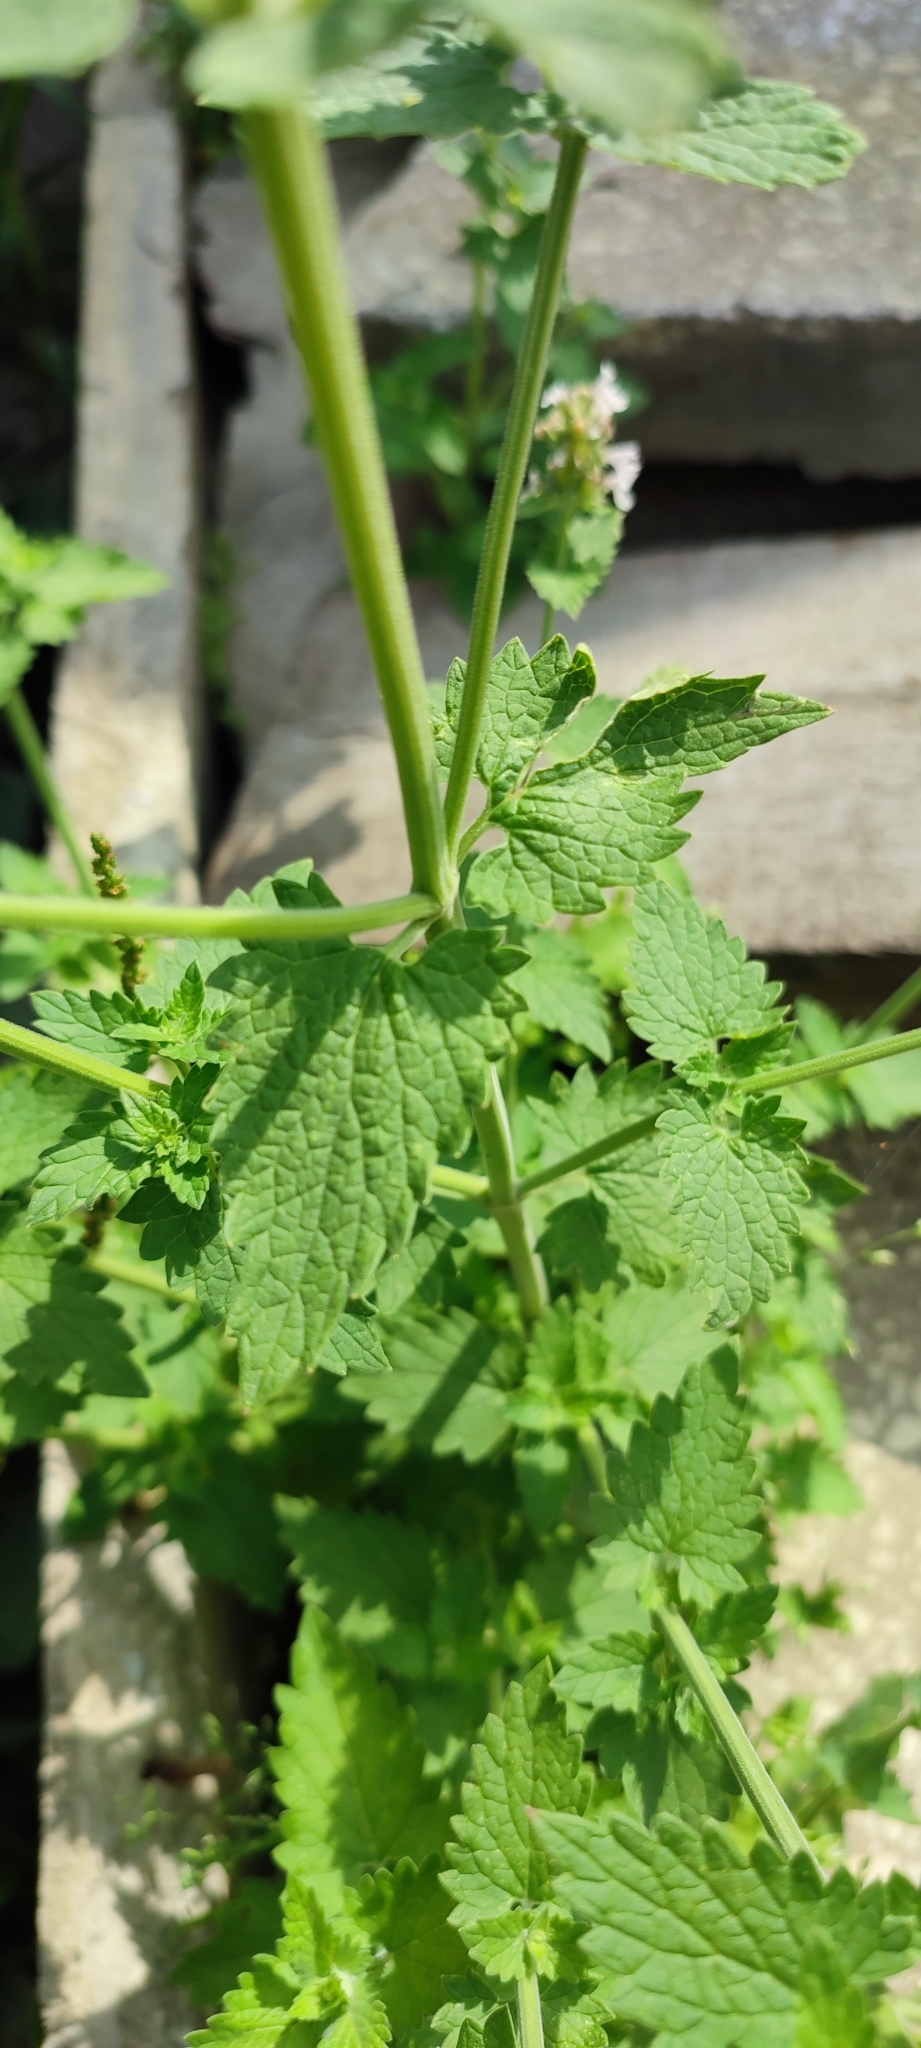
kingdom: Plantae
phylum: Tracheophyta
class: Magnoliopsida
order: Lamiales
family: Lamiaceae
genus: Nepeta
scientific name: Nepeta cataria
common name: Catnip
